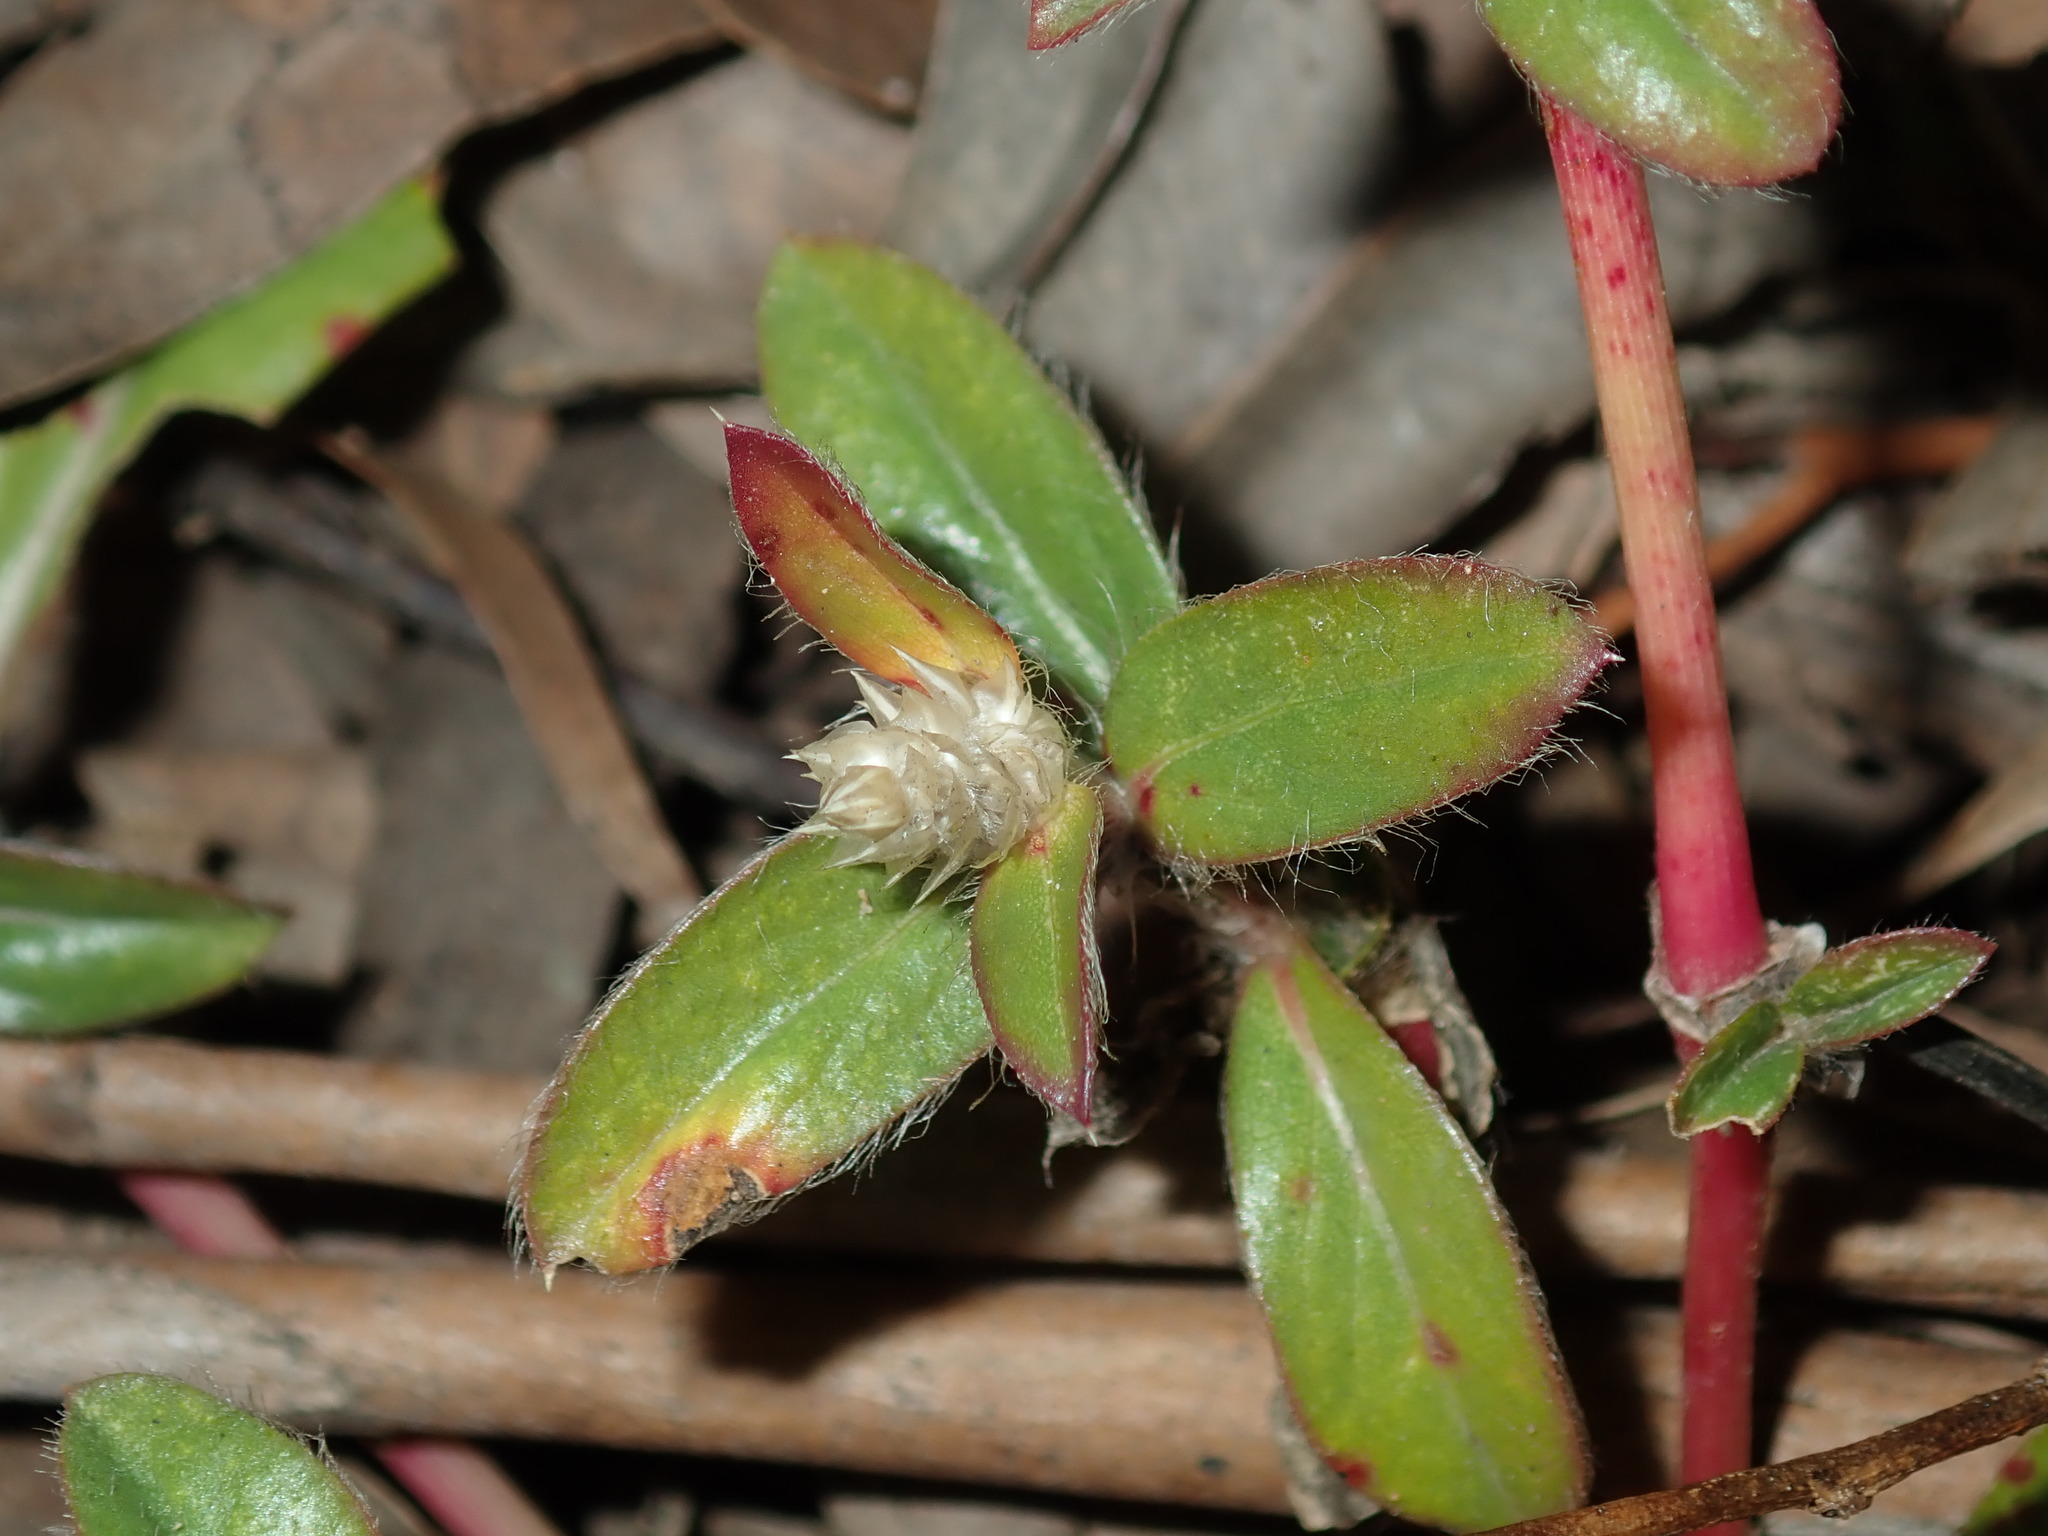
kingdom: Plantae
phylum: Tracheophyta
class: Magnoliopsida
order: Caryophyllales
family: Amaranthaceae
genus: Gomphrena
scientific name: Gomphrena celosioides
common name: Gomphrena-weed
